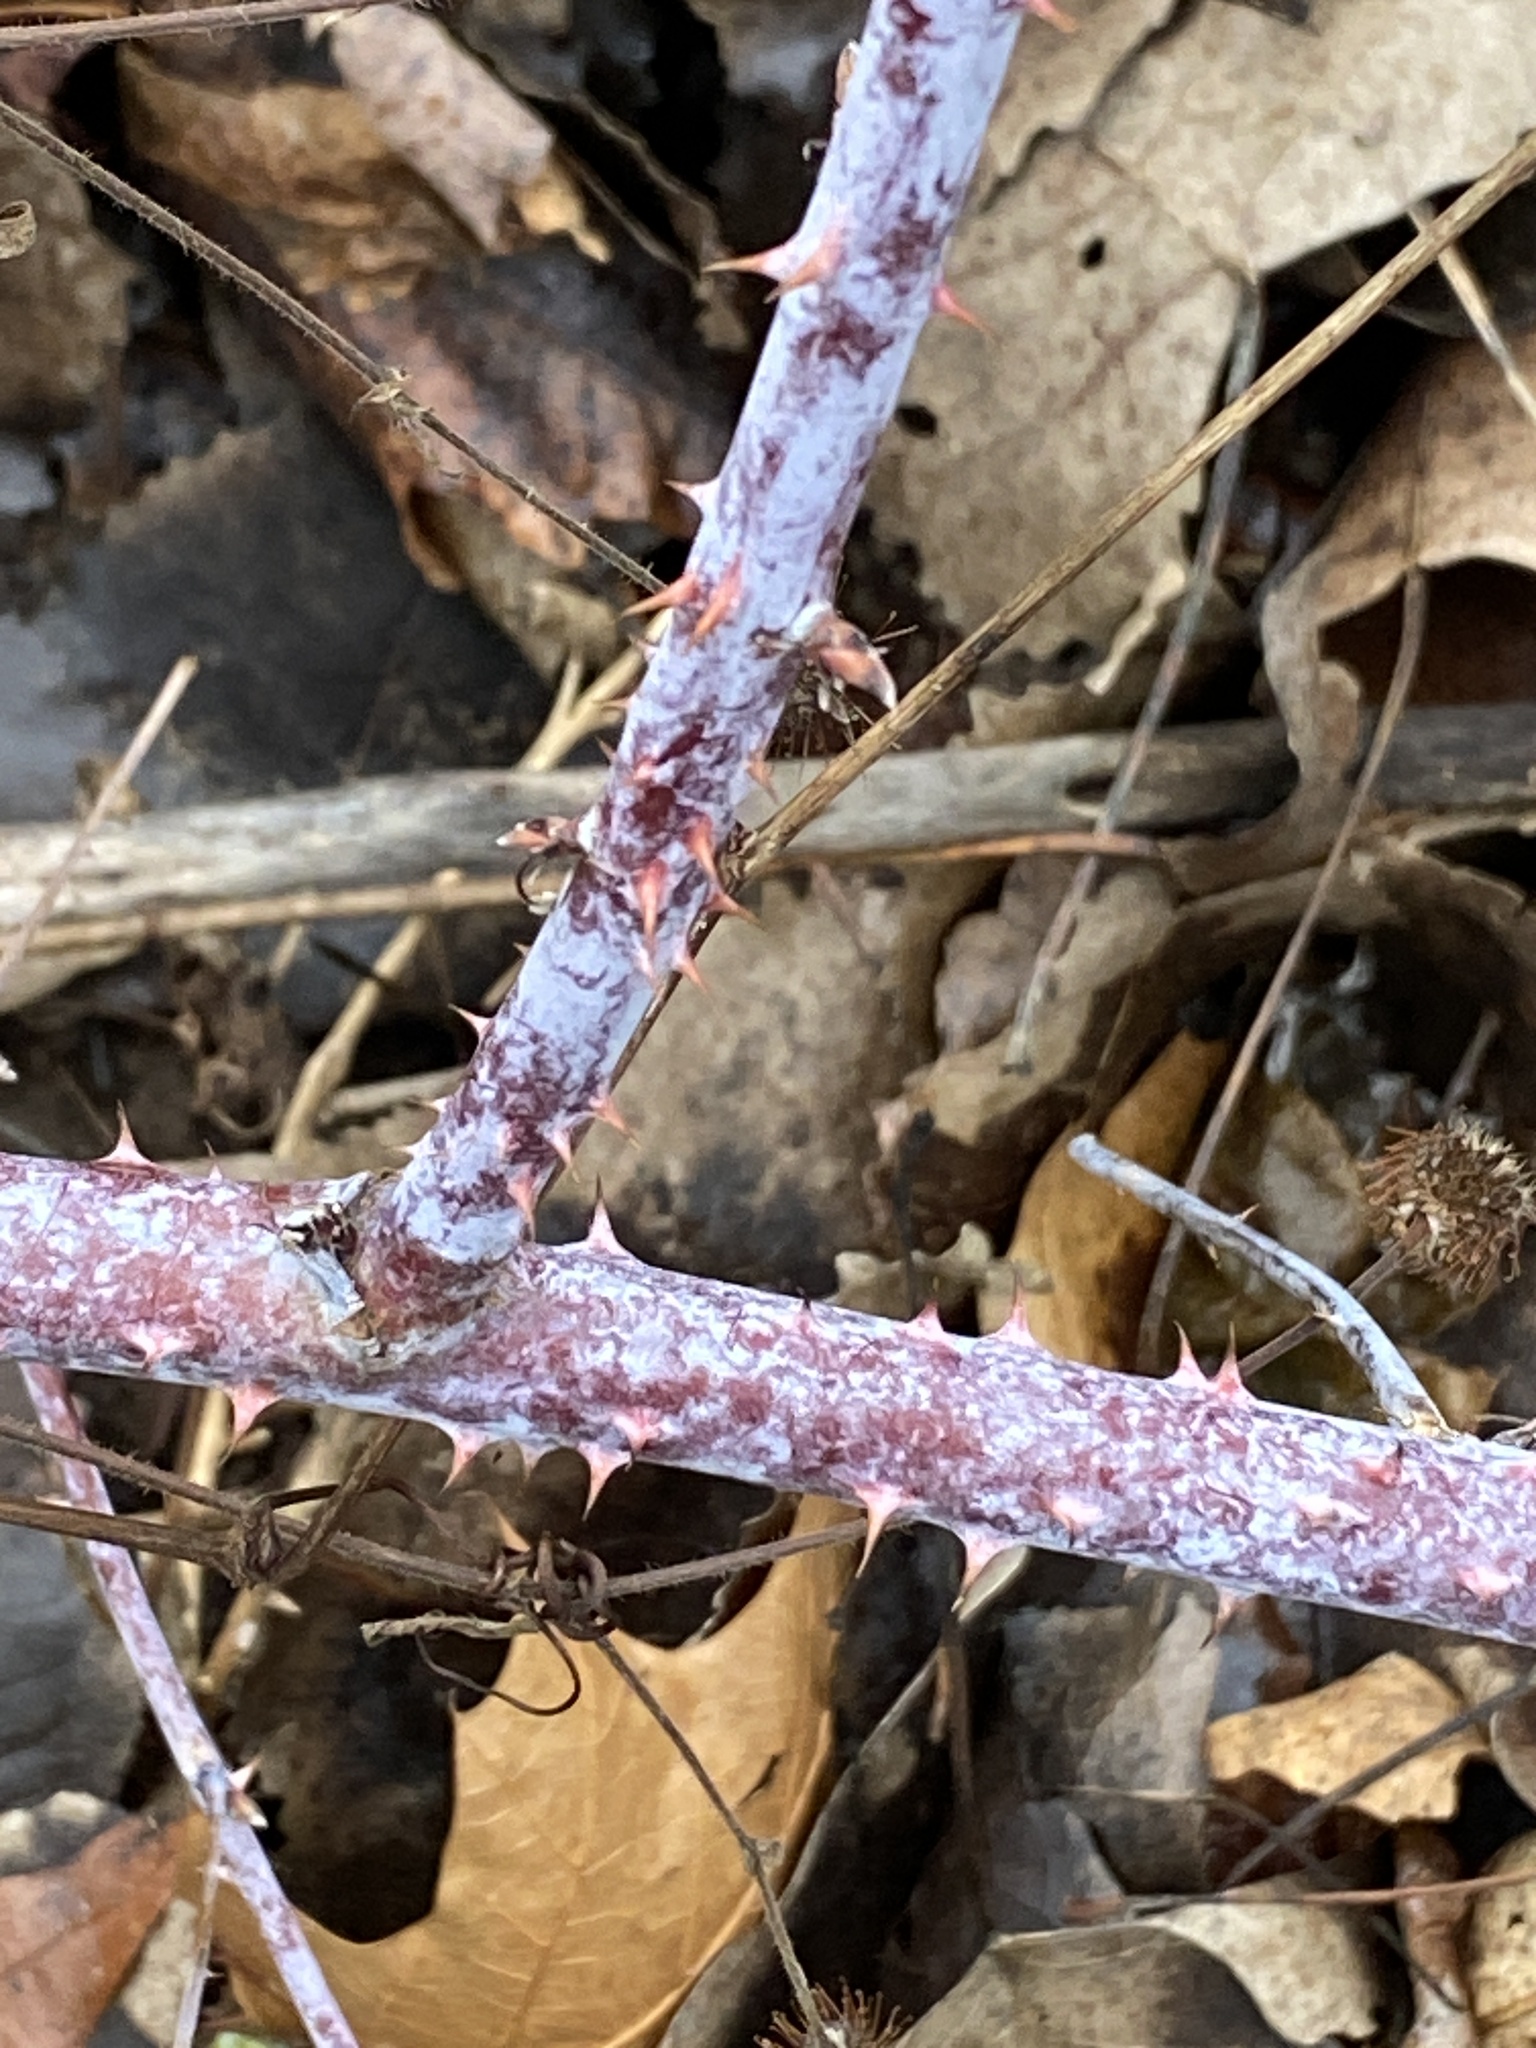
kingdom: Plantae
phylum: Tracheophyta
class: Magnoliopsida
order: Rosales
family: Rosaceae
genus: Rubus
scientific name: Rubus occidentalis
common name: Black raspberry
